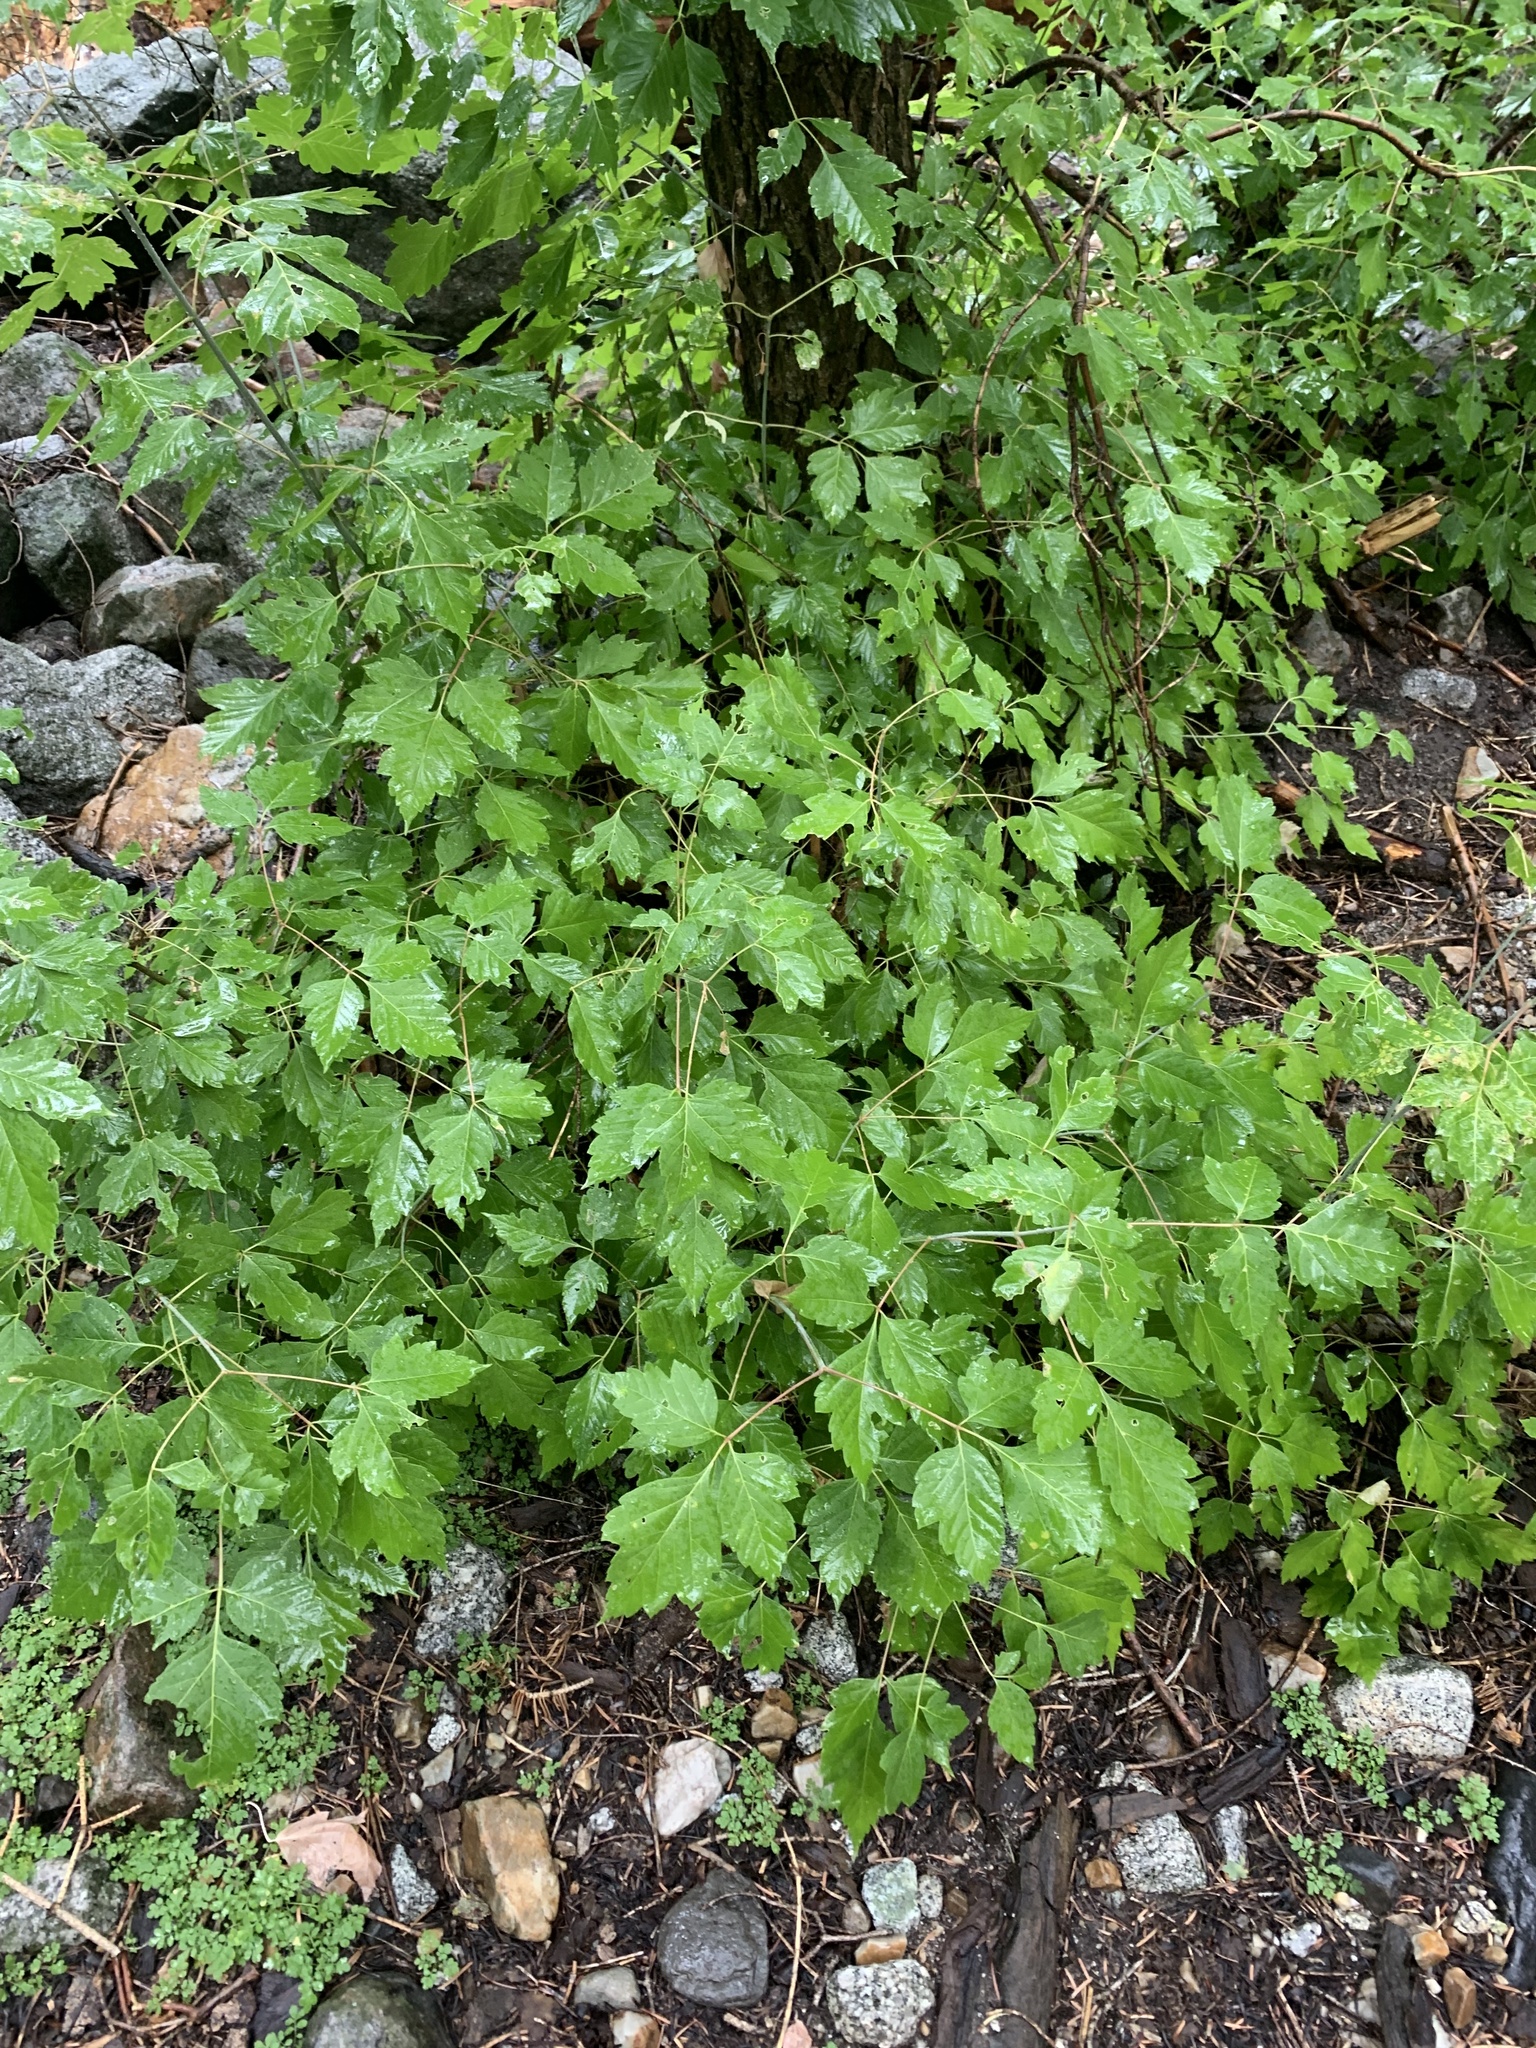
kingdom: Plantae
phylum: Tracheophyta
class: Magnoliopsida
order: Sapindales
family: Sapindaceae
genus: Acer
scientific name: Acer negundo
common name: Ashleaf maple
